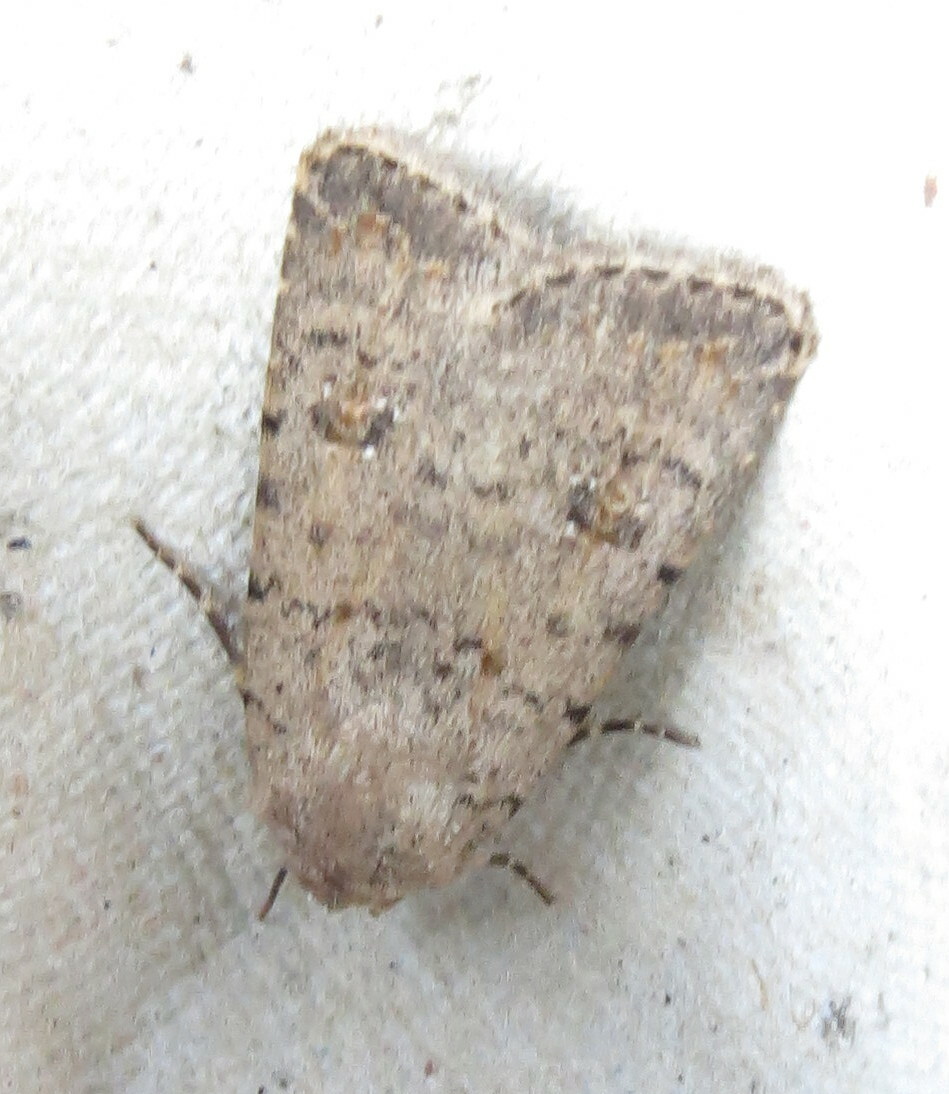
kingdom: Animalia
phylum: Arthropoda
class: Insecta
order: Lepidoptera
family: Noctuidae
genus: Caradrina
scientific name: Caradrina clavipalpis
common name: Pale mottled willow
